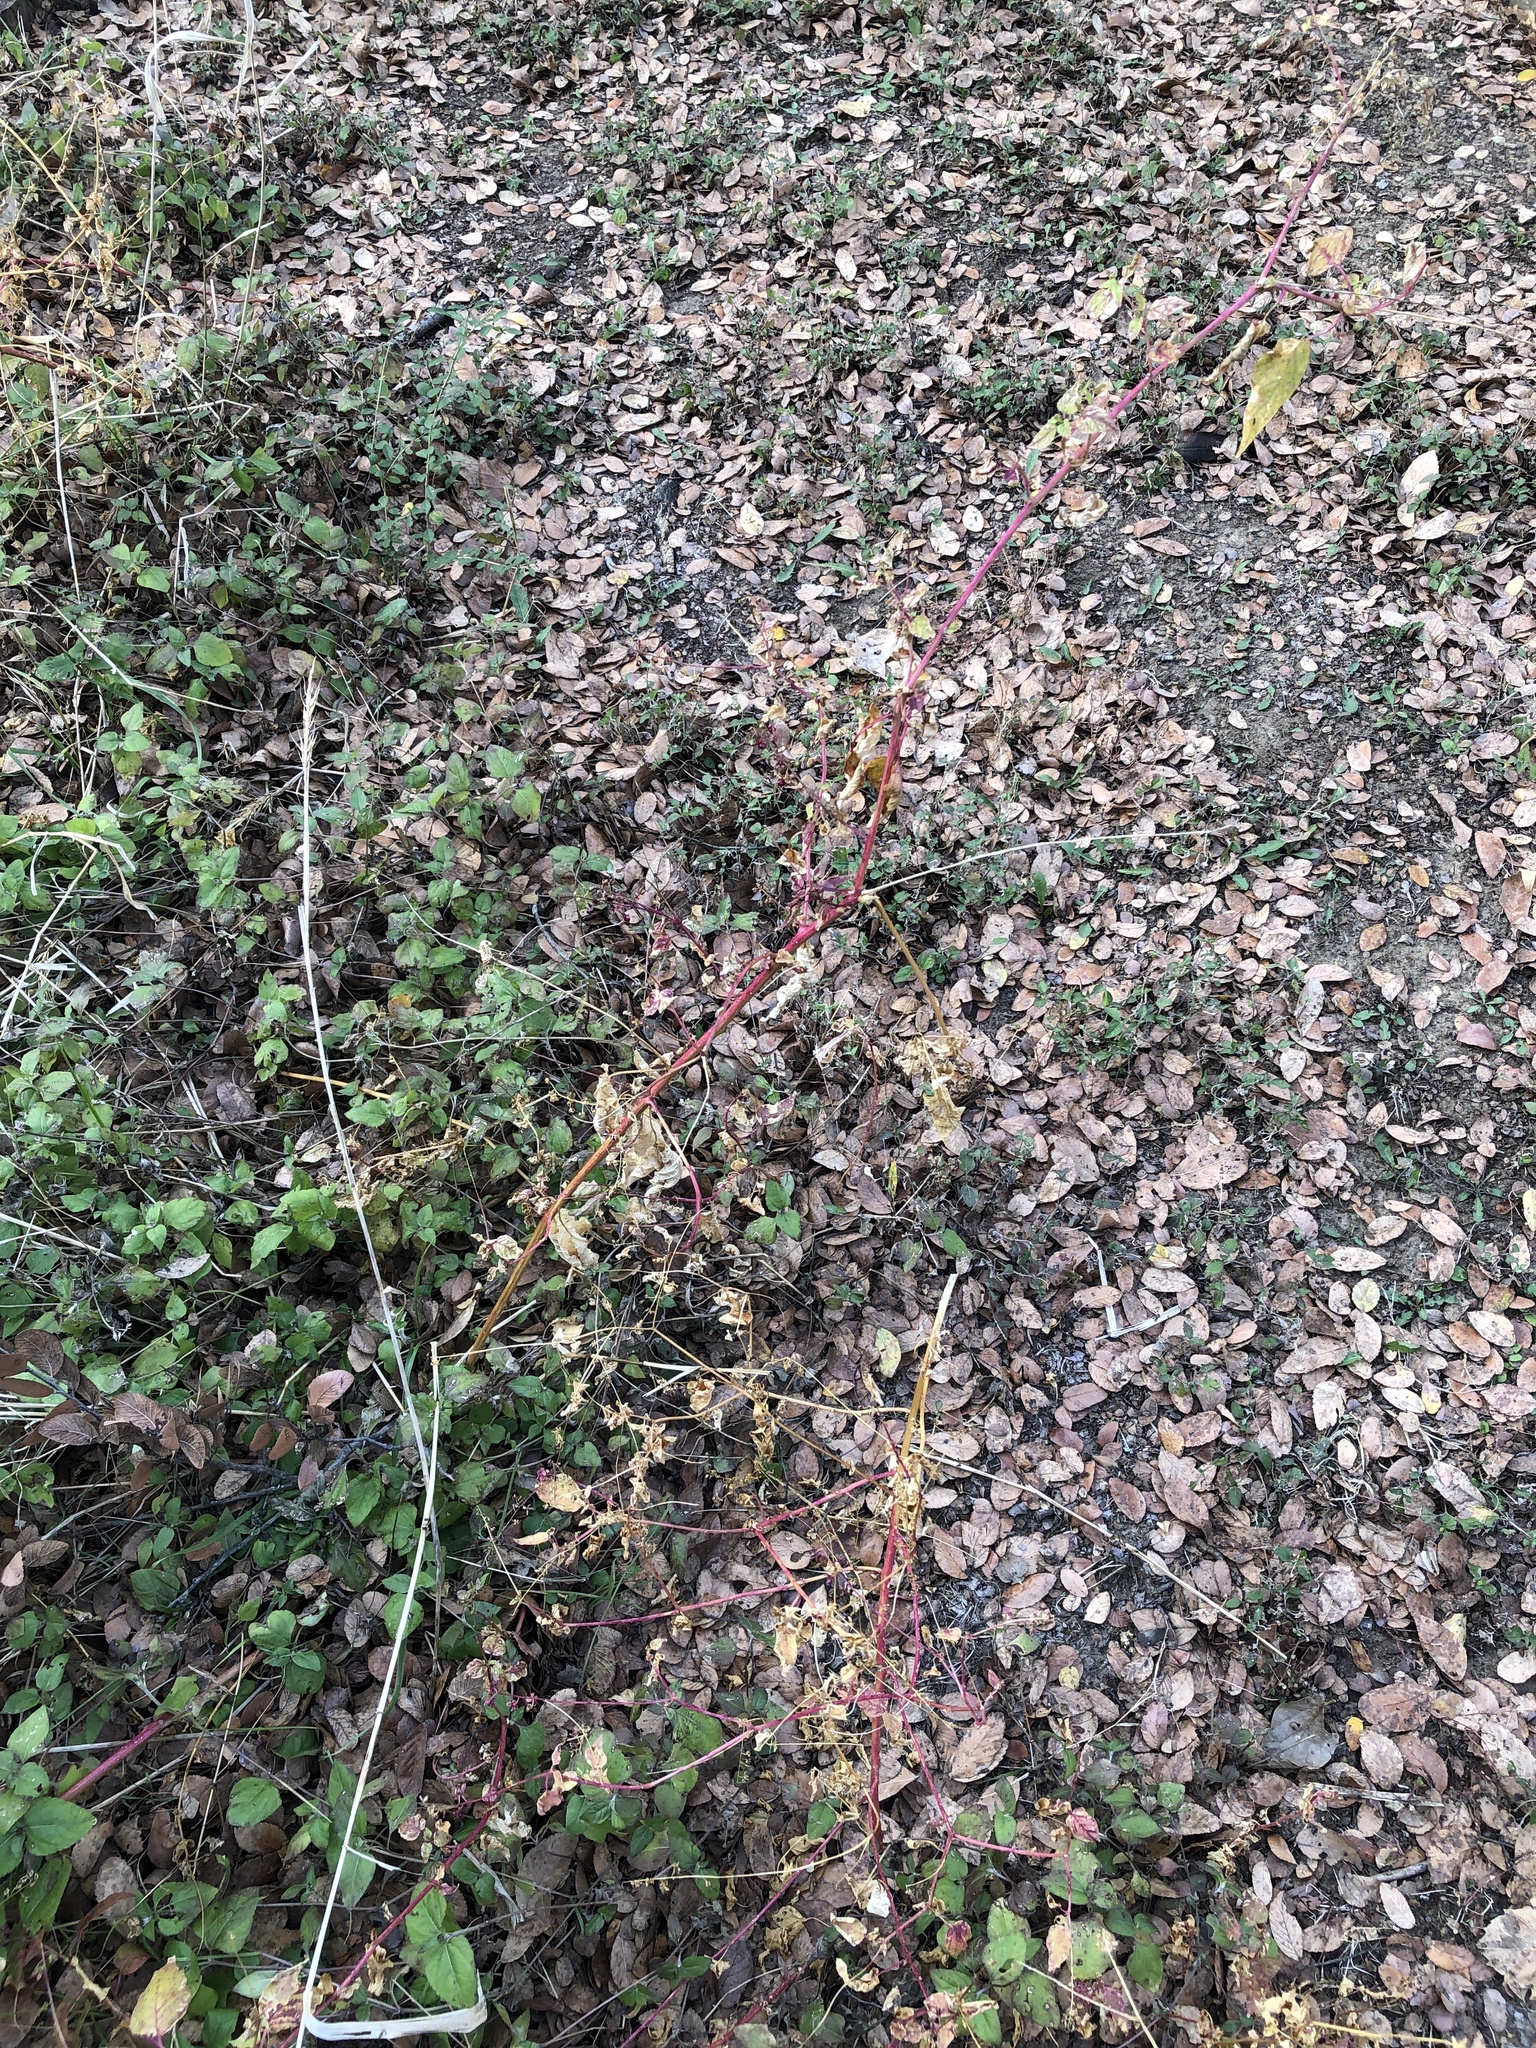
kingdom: Plantae
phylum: Tracheophyta
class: Magnoliopsida
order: Caryophyllales
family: Phytolaccaceae
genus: Rivina
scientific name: Rivina humilis
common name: Rougeplant
